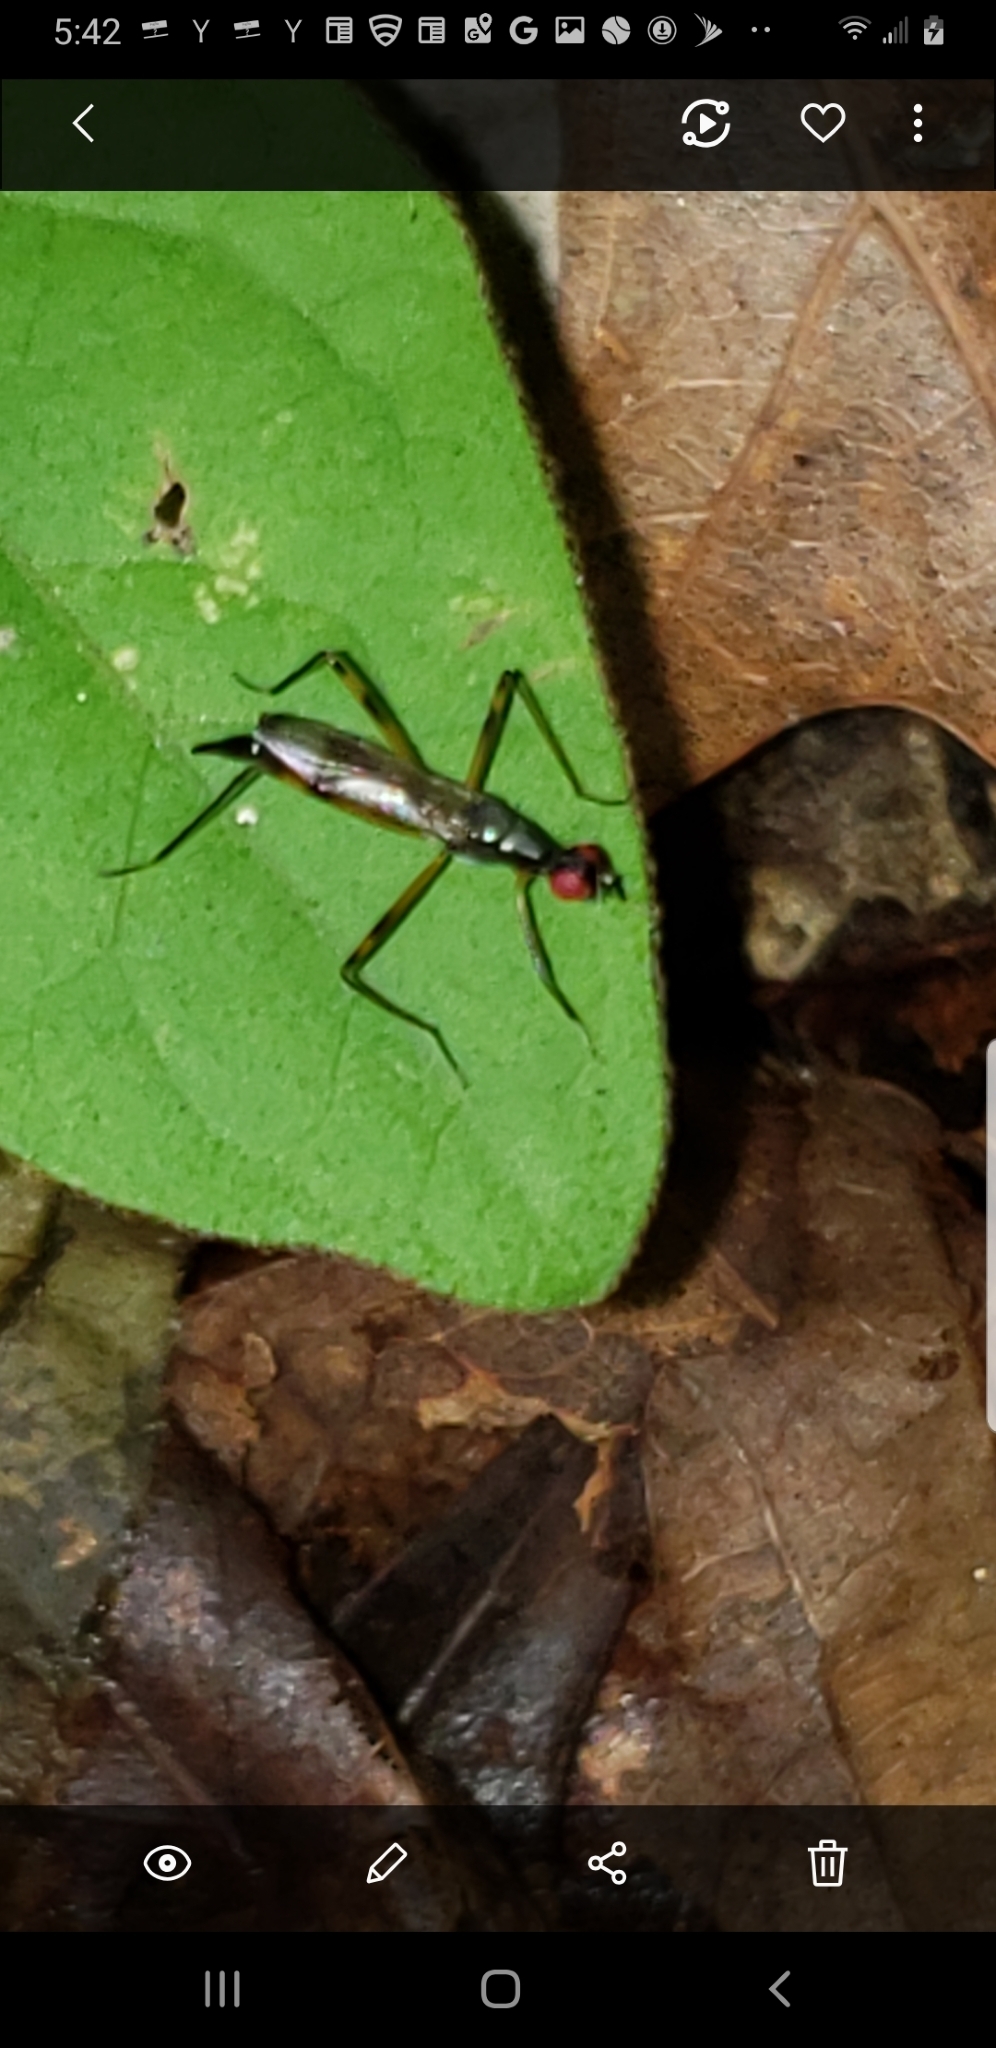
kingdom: Animalia
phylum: Arthropoda
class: Insecta
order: Diptera
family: Micropezidae
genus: Rainieria
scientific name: Rainieria antennaepes
